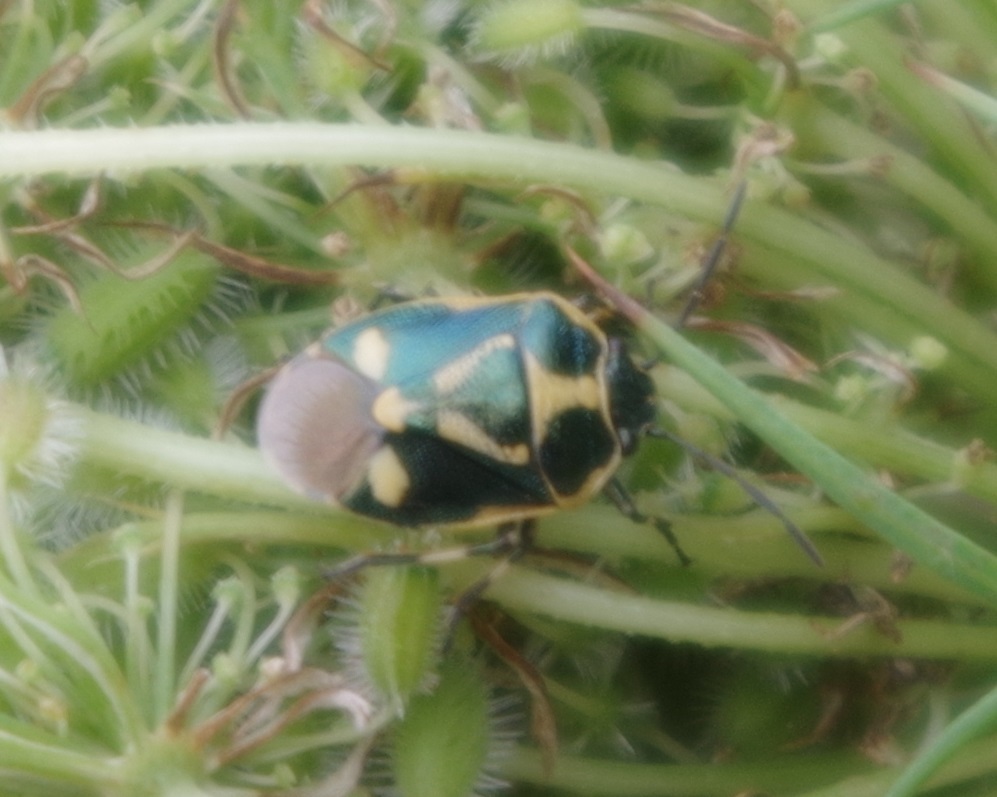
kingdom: Animalia
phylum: Arthropoda
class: Insecta
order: Hemiptera
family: Pentatomidae
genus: Eurydema
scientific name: Eurydema oleracea
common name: Cabbage bug
